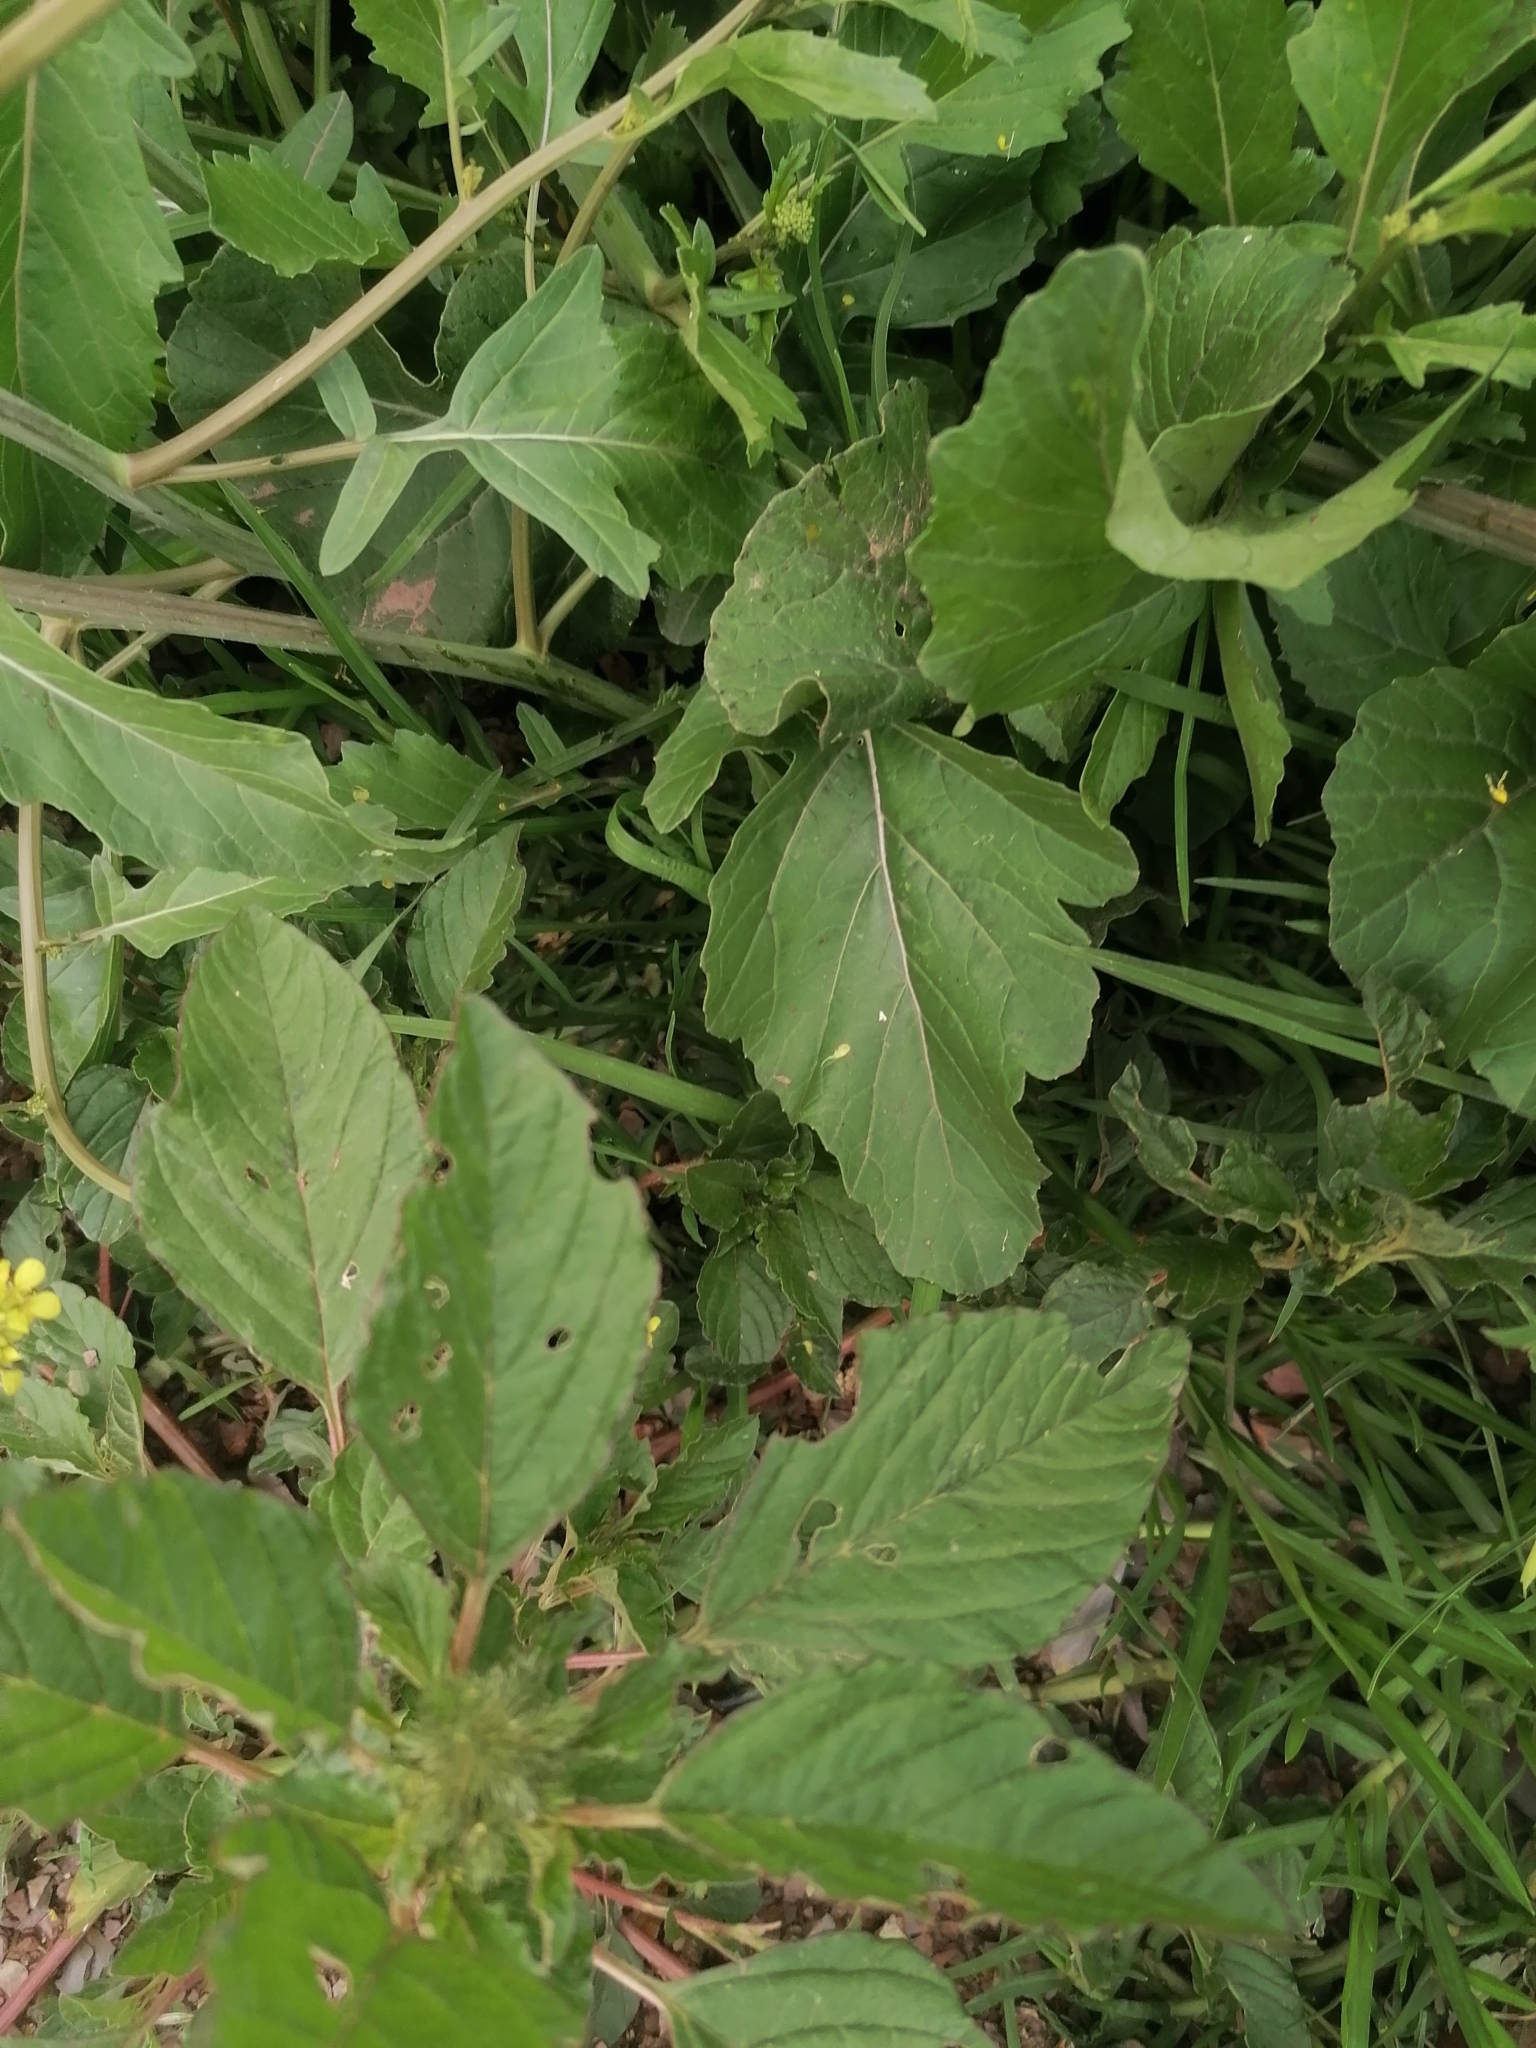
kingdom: Plantae
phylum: Tracheophyta
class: Magnoliopsida
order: Brassicales
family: Brassicaceae
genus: Rapistrum
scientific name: Rapistrum rugosum
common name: Annual bastardcabbage
